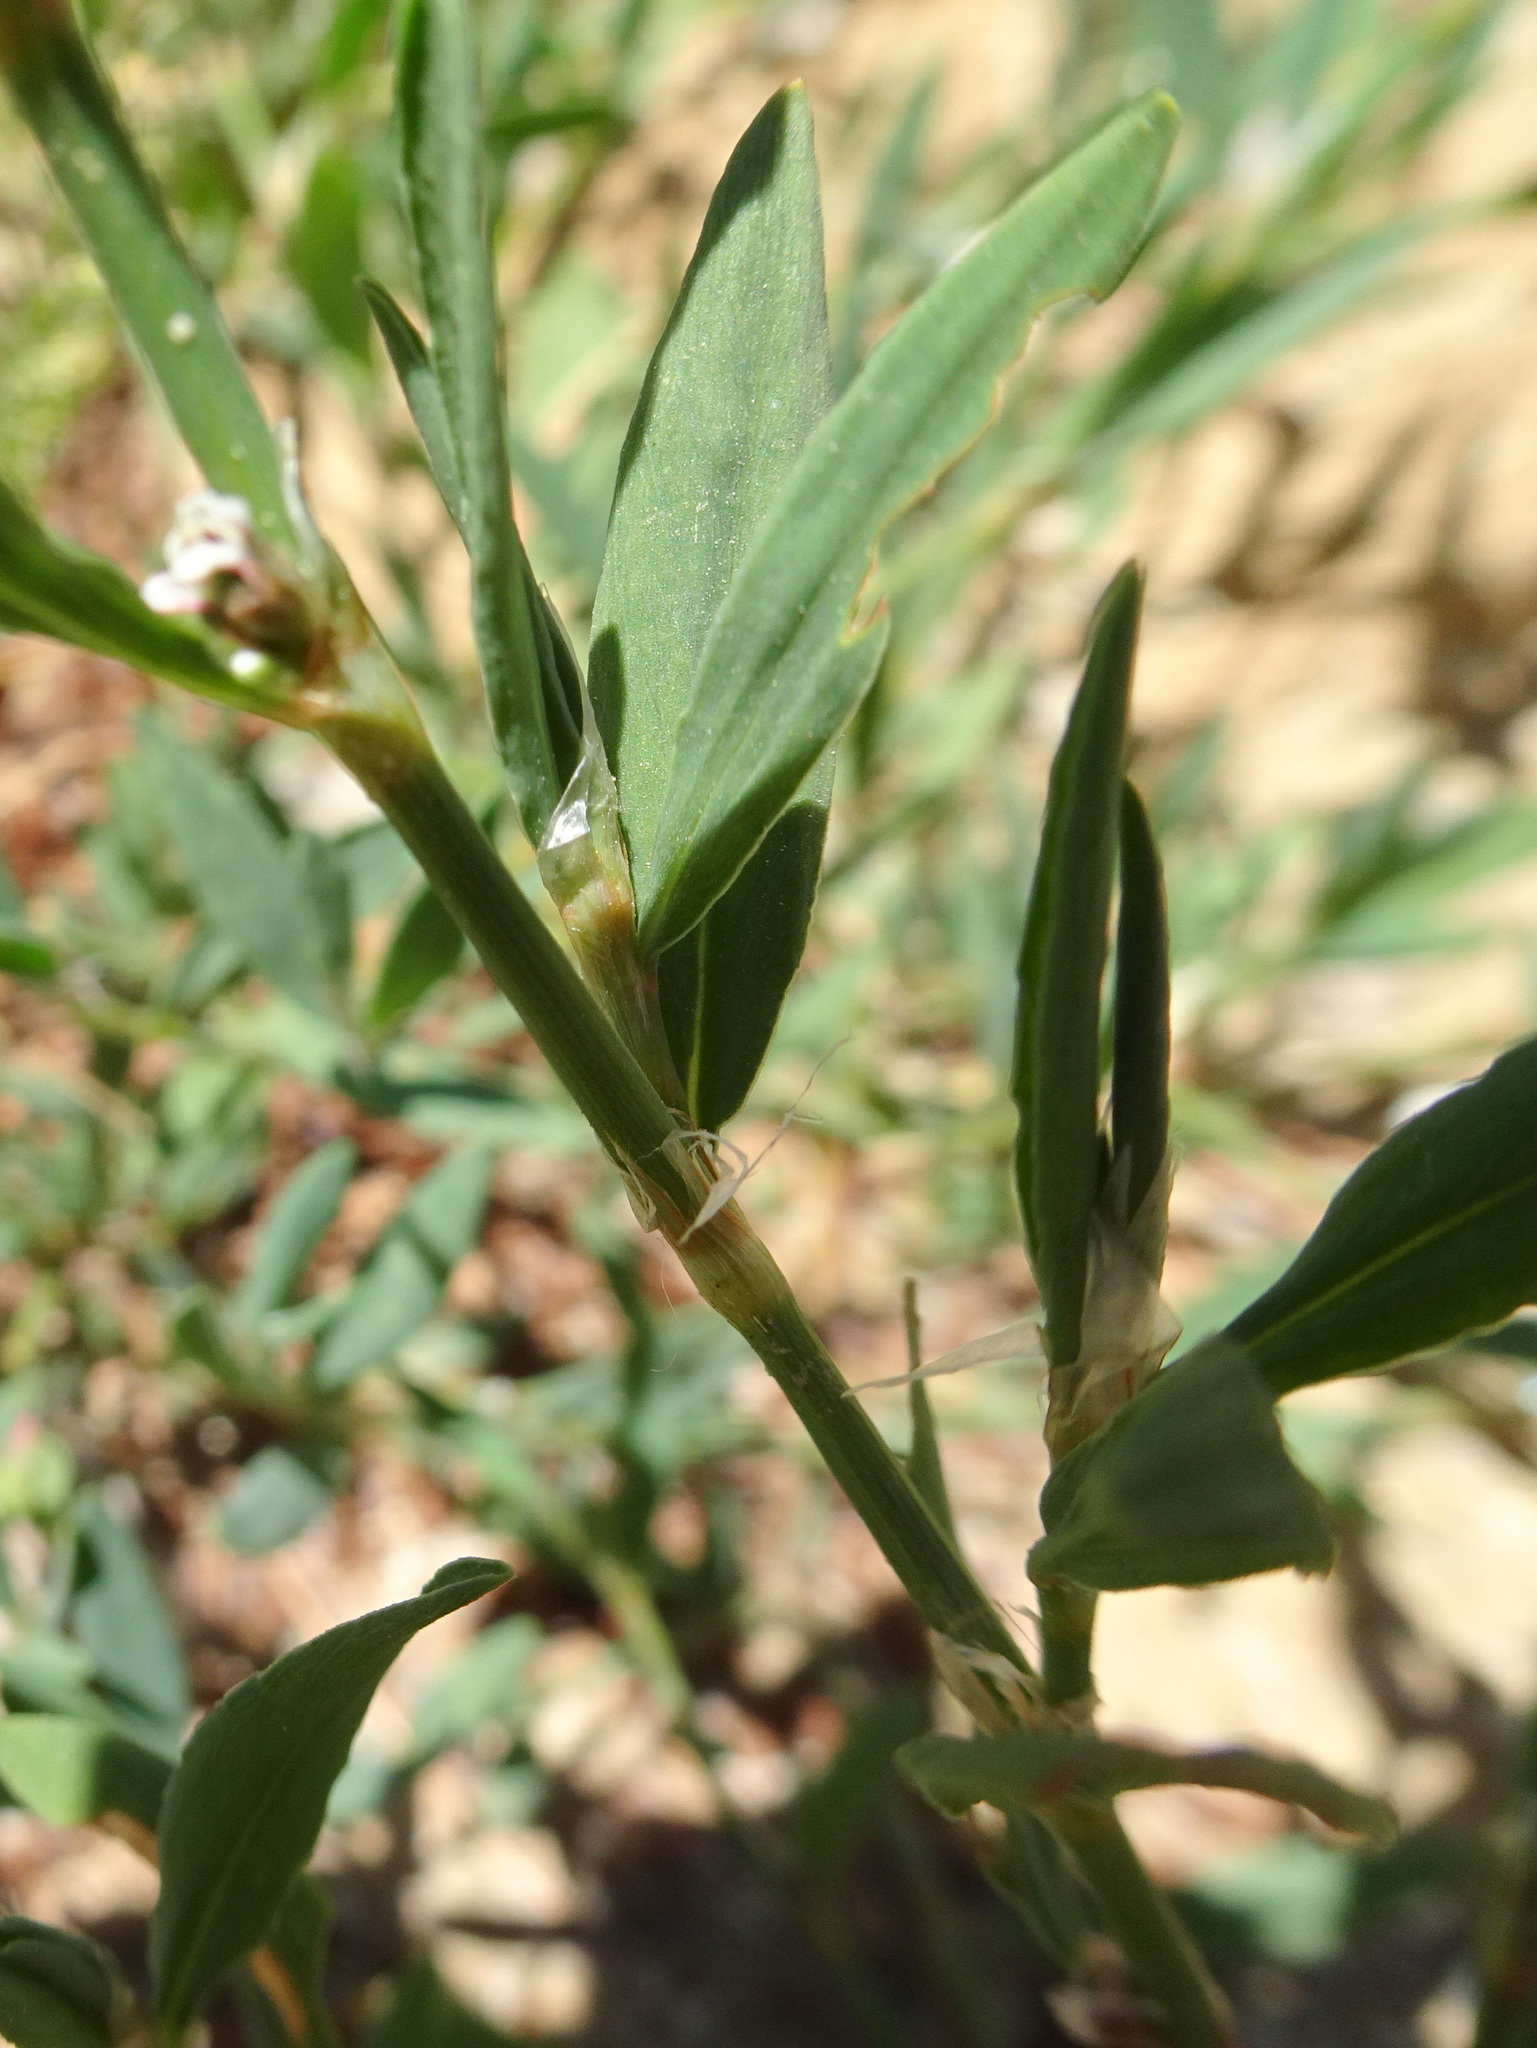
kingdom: Plantae
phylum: Tracheophyta
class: Magnoliopsida
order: Caryophyllales
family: Polygonaceae
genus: Polygonum
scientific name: Polygonum aviculare
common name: Prostrate knotweed
